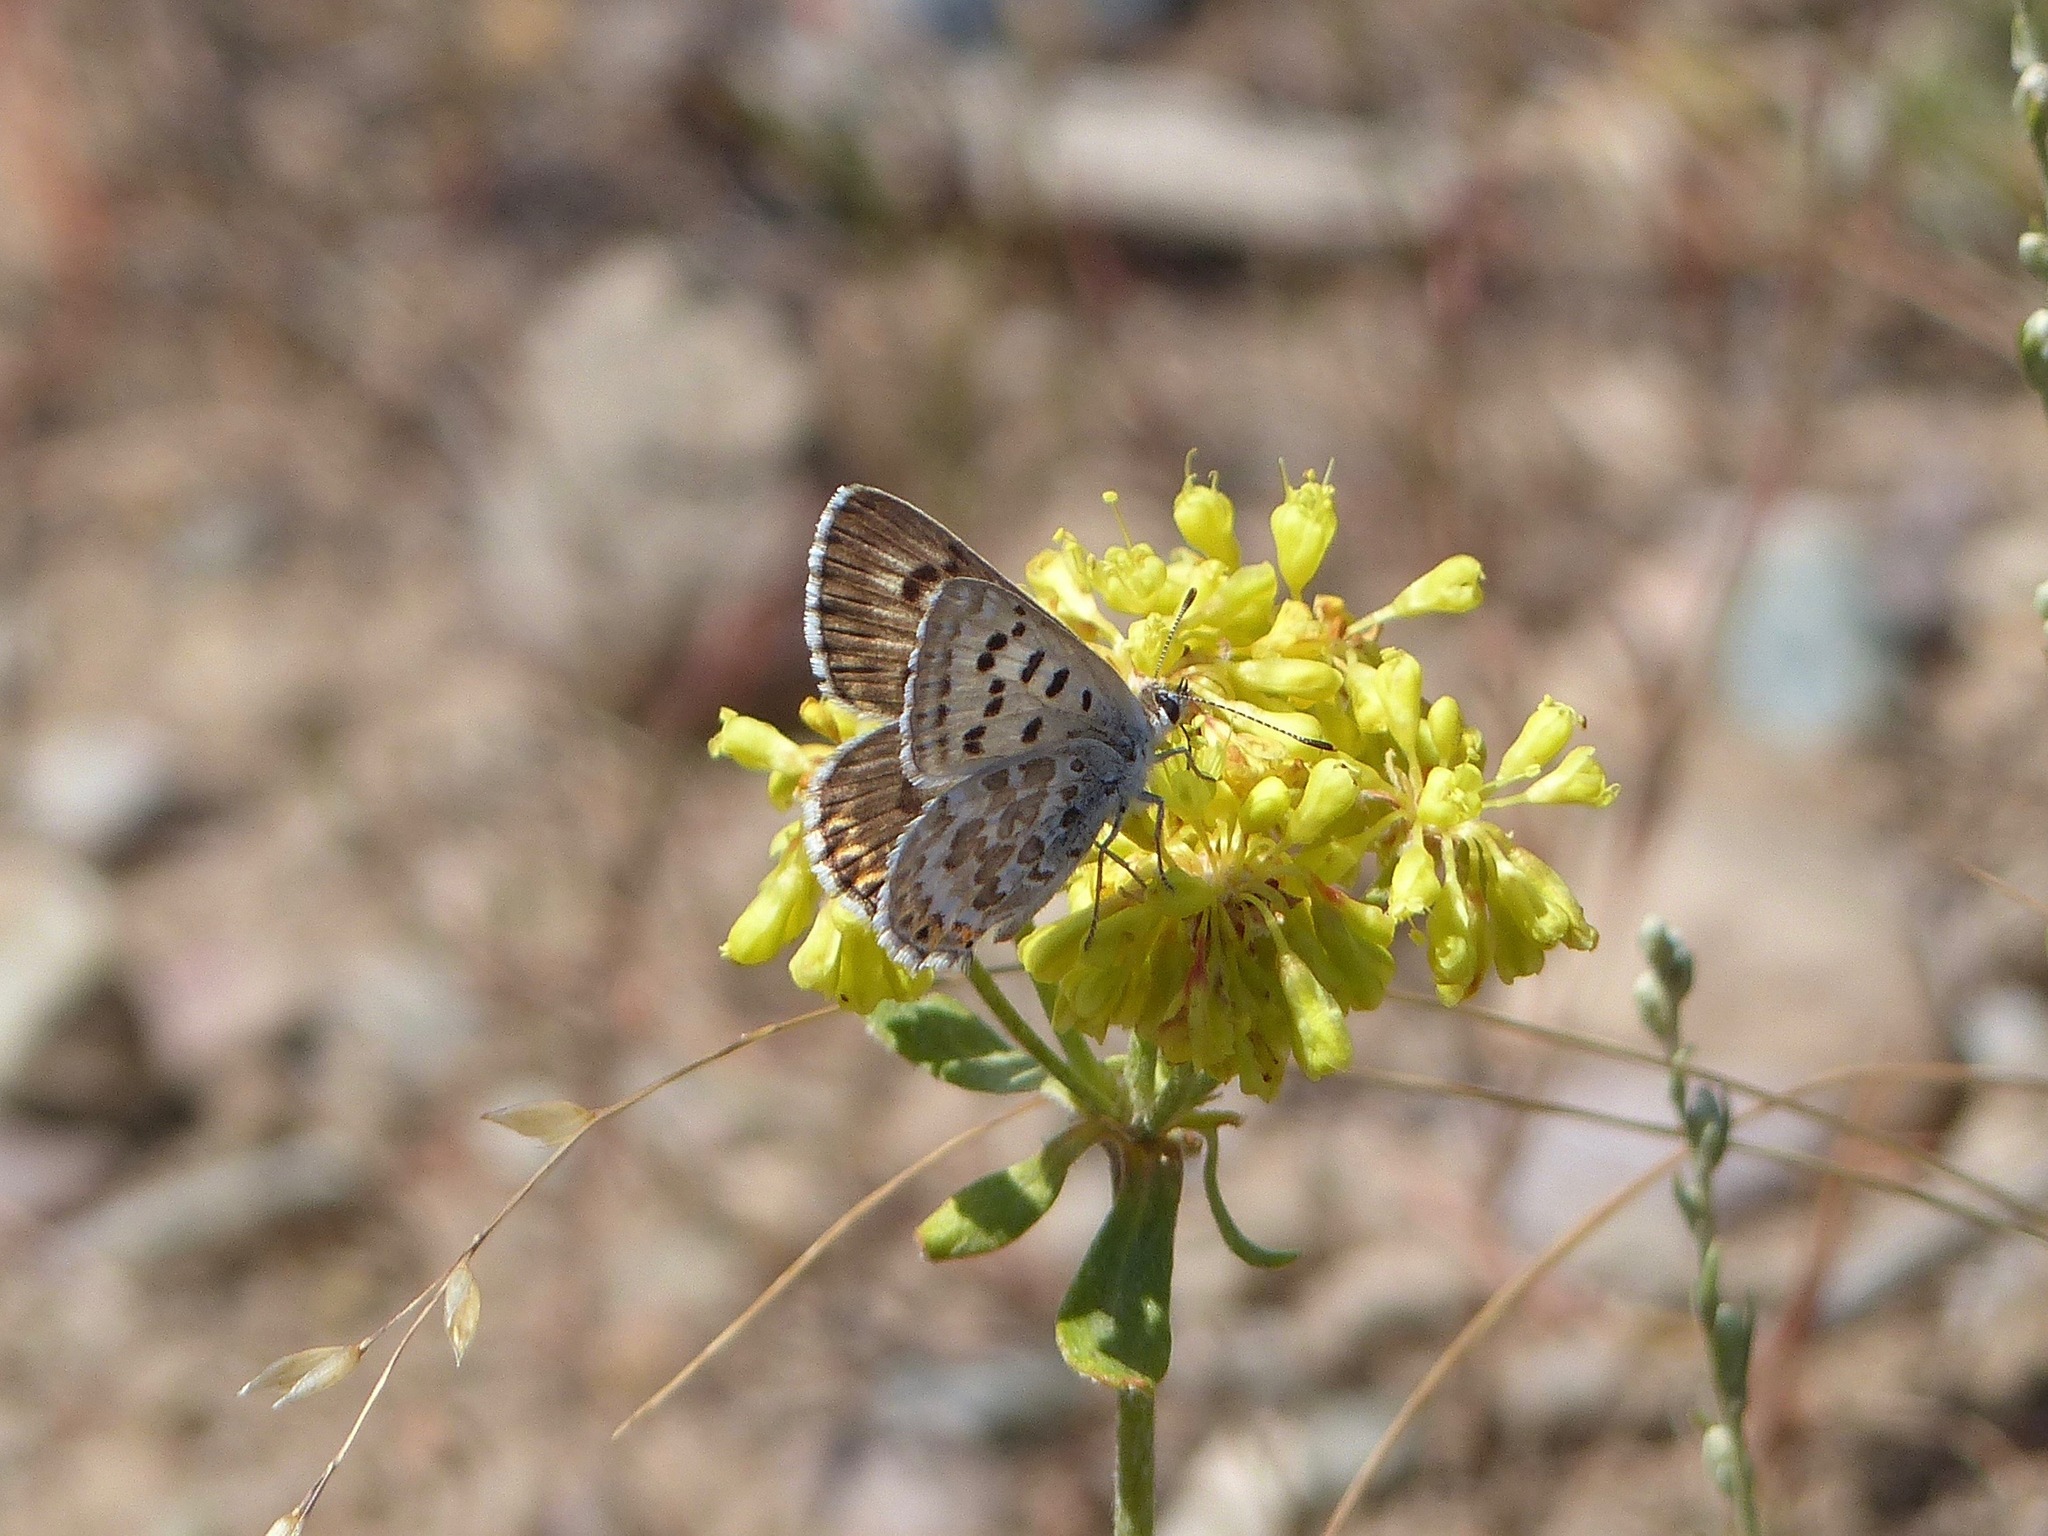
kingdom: Animalia
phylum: Arthropoda
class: Insecta
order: Lepidoptera
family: Lycaenidae
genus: Tharsalea
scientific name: Tharsalea editha
